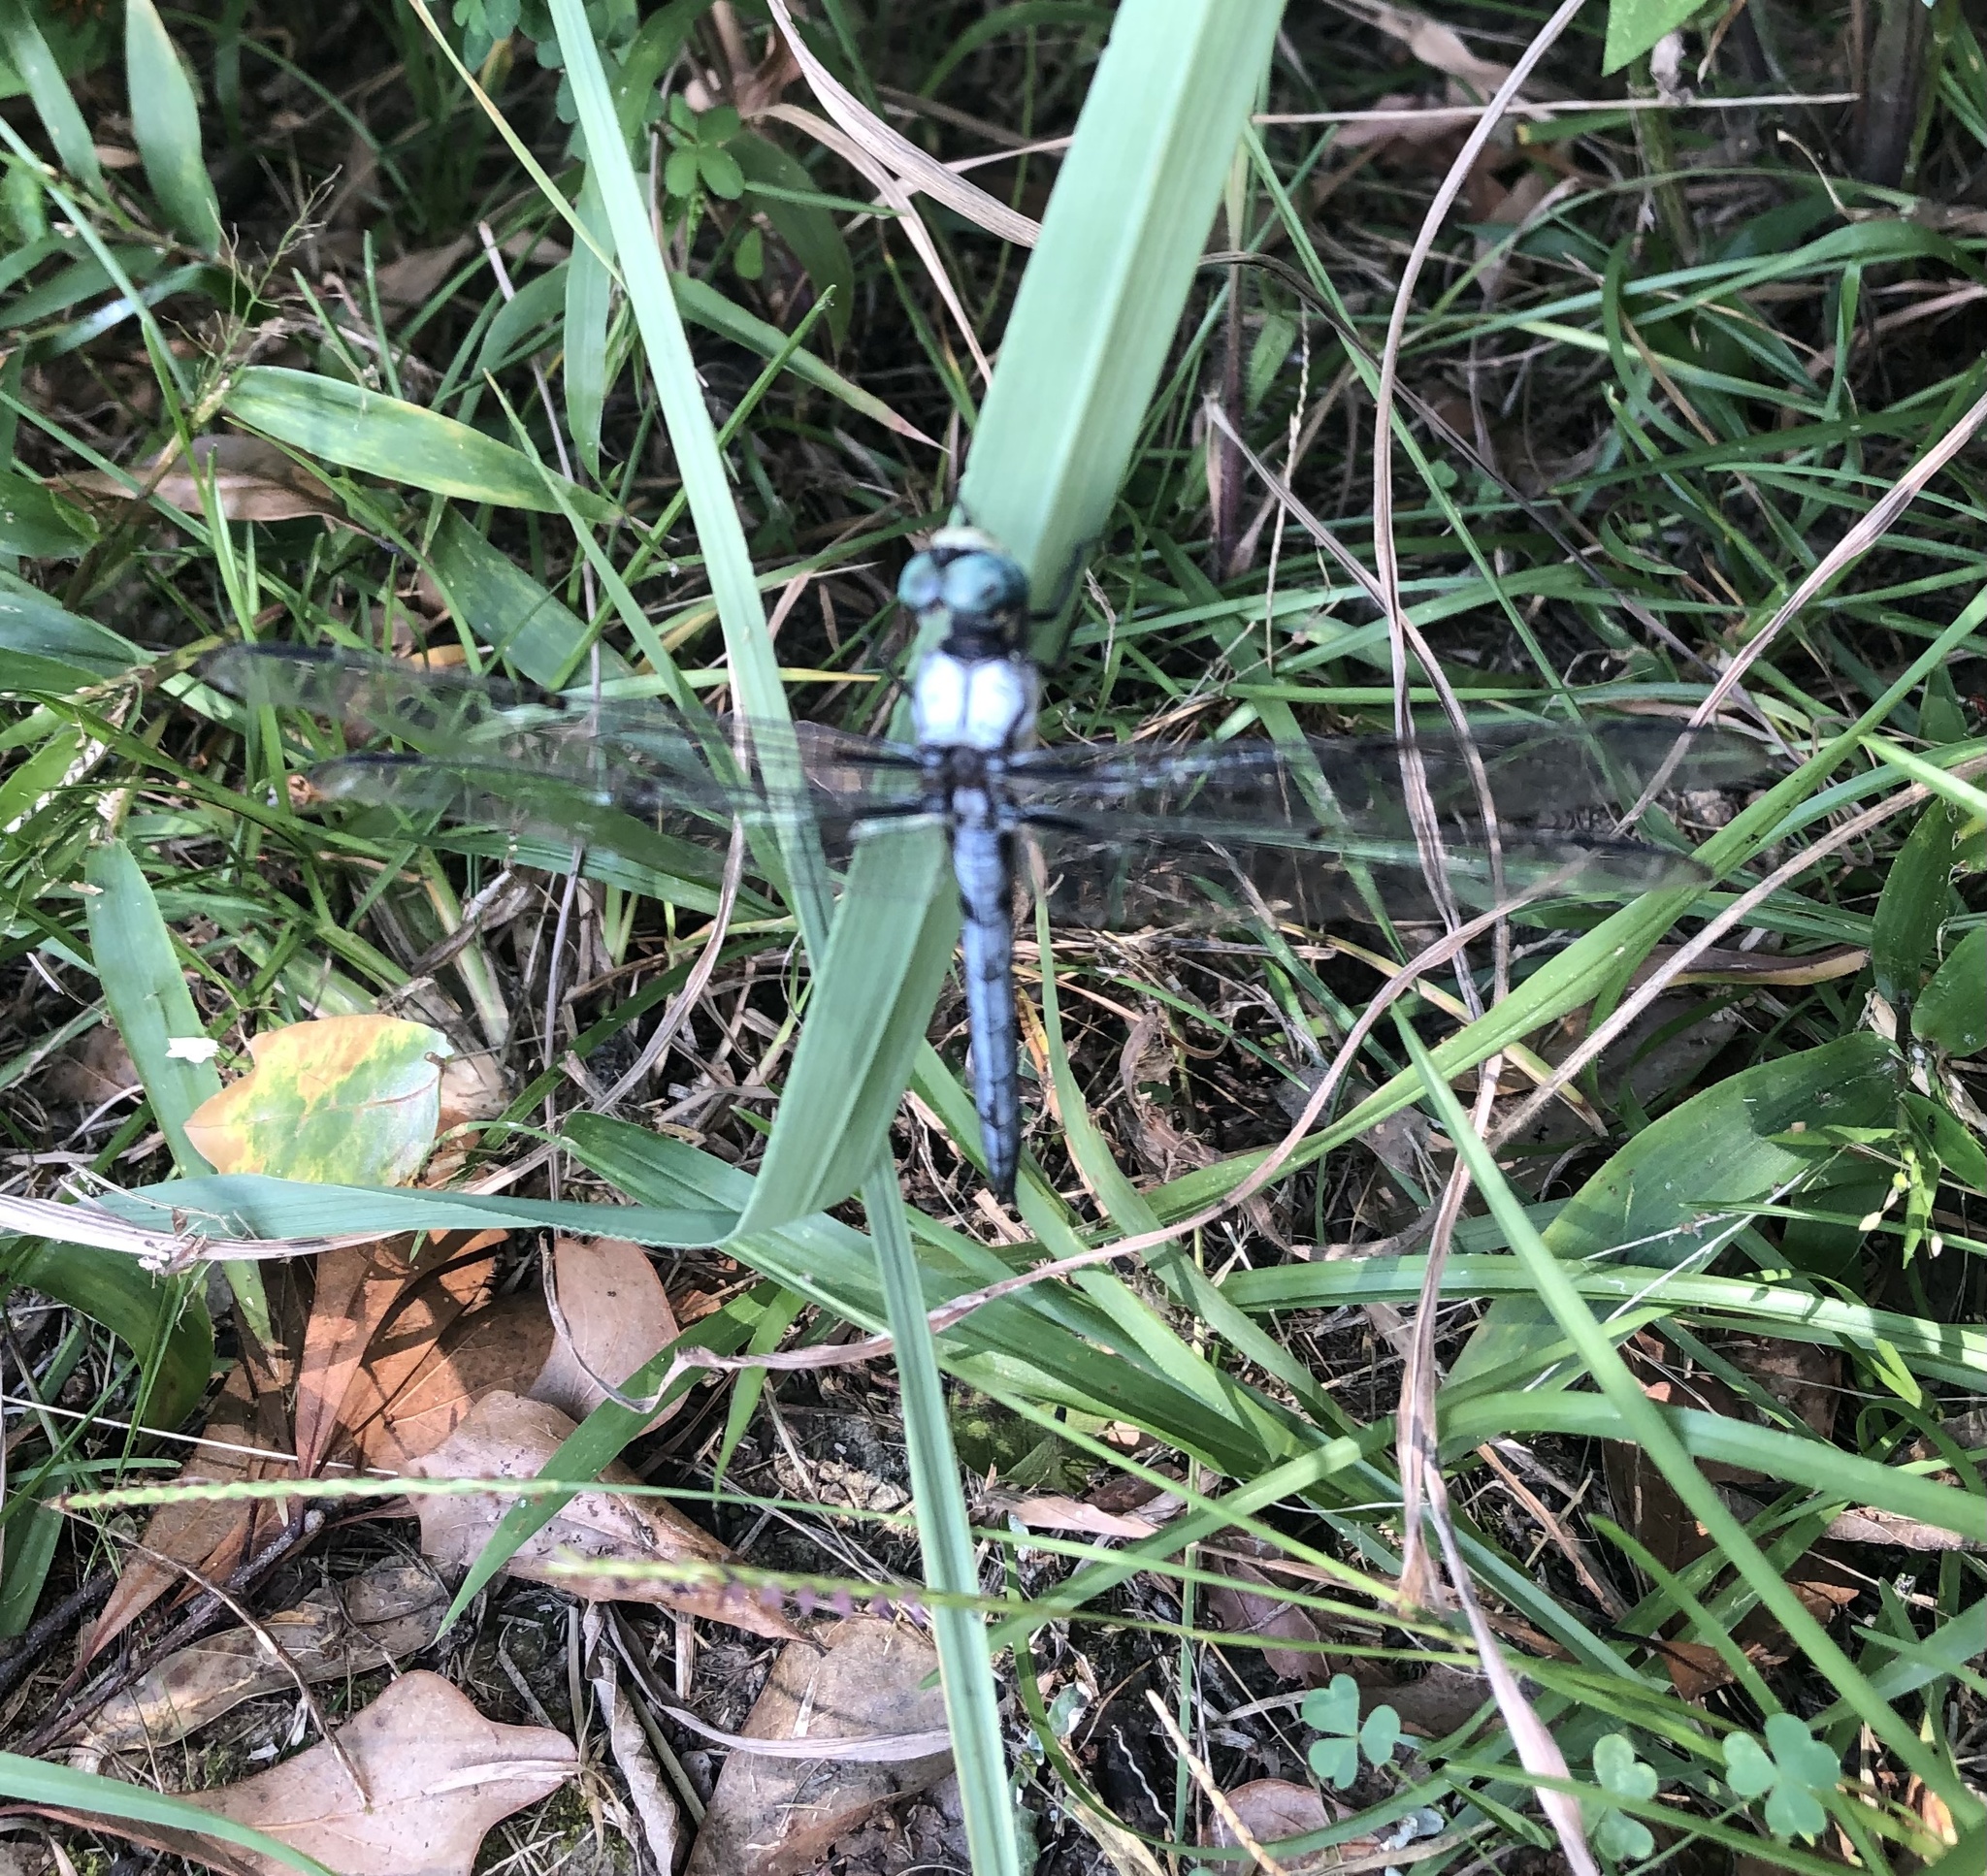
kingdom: Animalia
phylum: Arthropoda
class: Insecta
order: Odonata
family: Libellulidae
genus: Libellula
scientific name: Libellula vibrans
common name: Great blue skimmer
